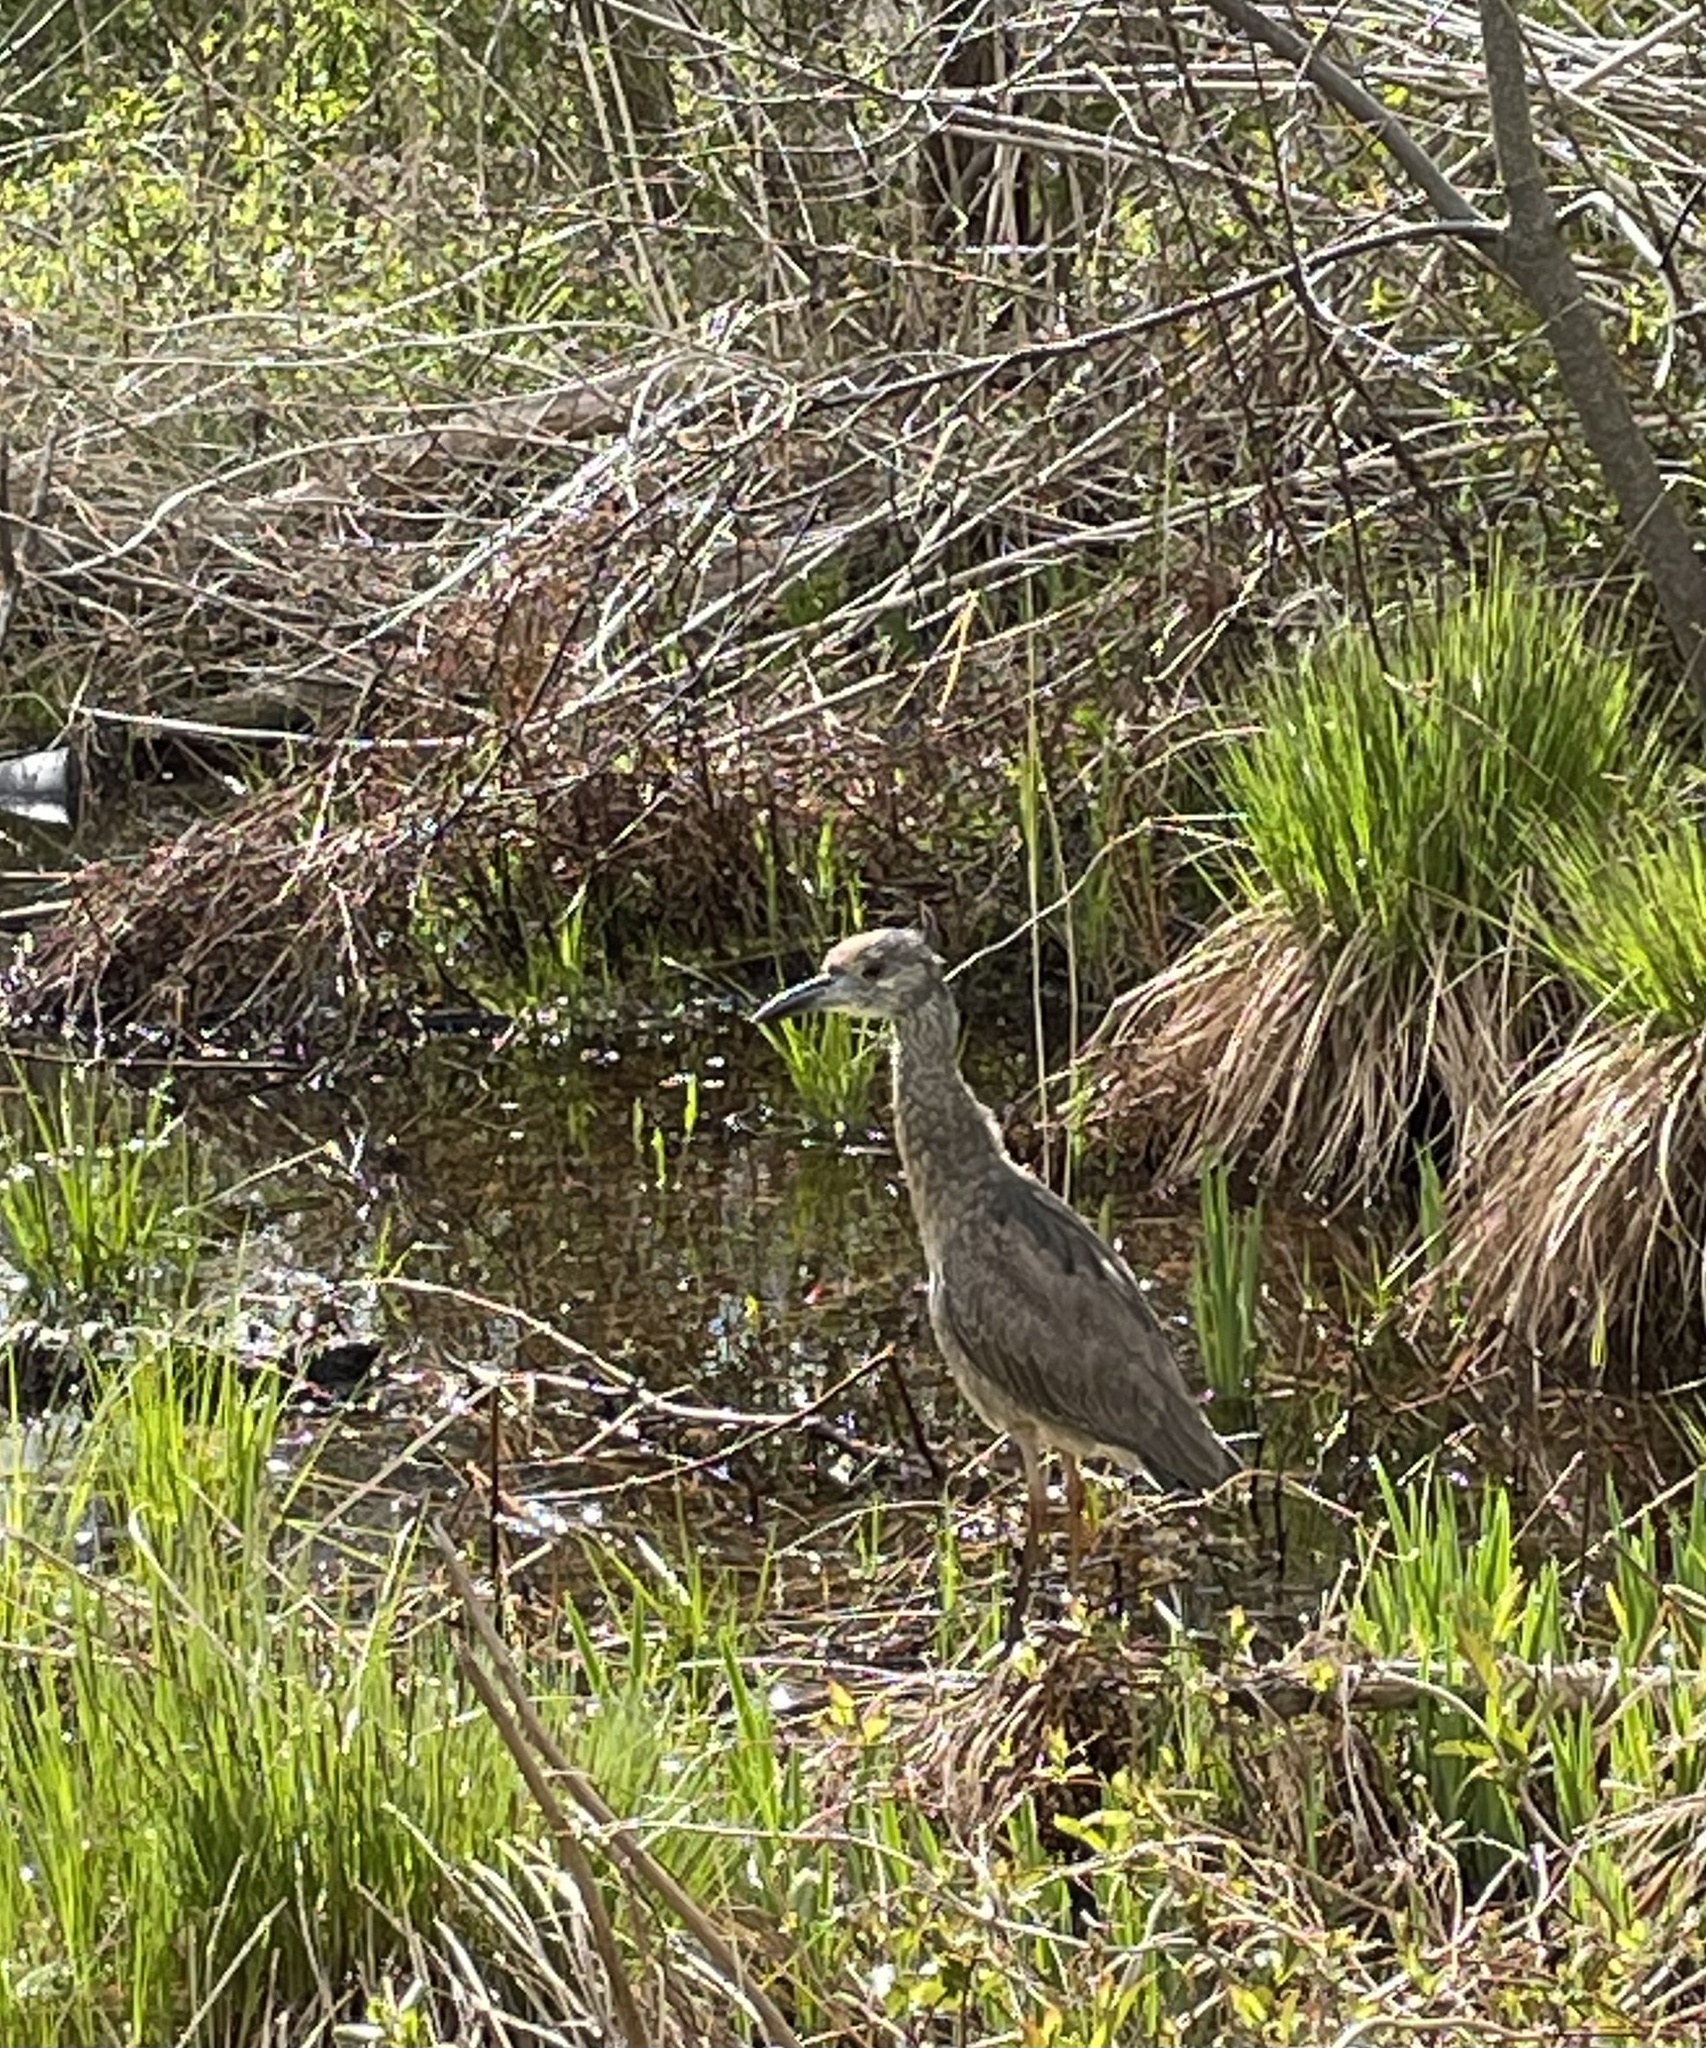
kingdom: Animalia
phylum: Chordata
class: Aves
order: Pelecaniformes
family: Ardeidae
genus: Nyctanassa
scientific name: Nyctanassa violacea
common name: Yellow-crowned night heron
